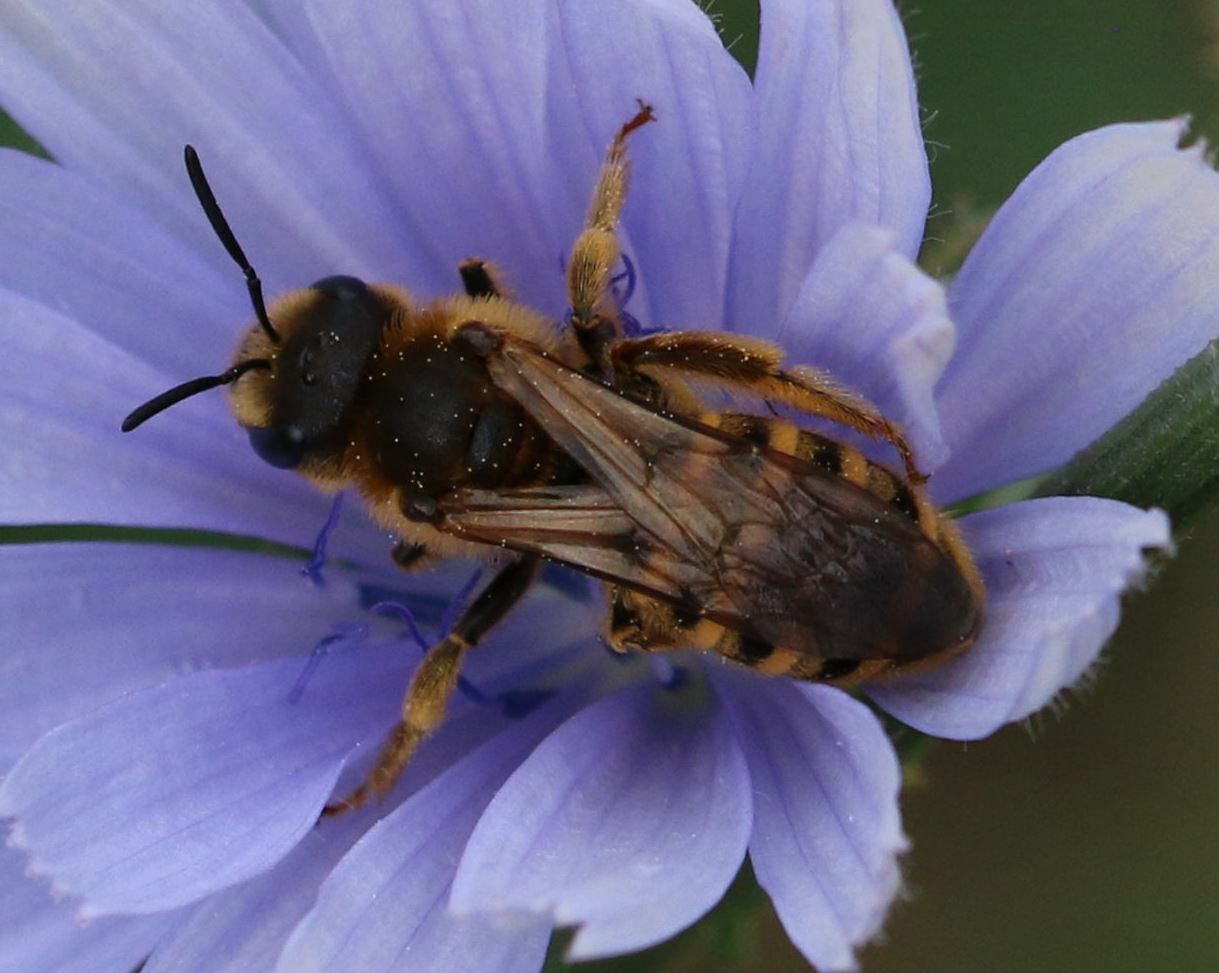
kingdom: Animalia
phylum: Arthropoda
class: Insecta
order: Hymenoptera
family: Halictidae
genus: Halictus
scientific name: Halictus scabiosae
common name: Great banded furrow bee
